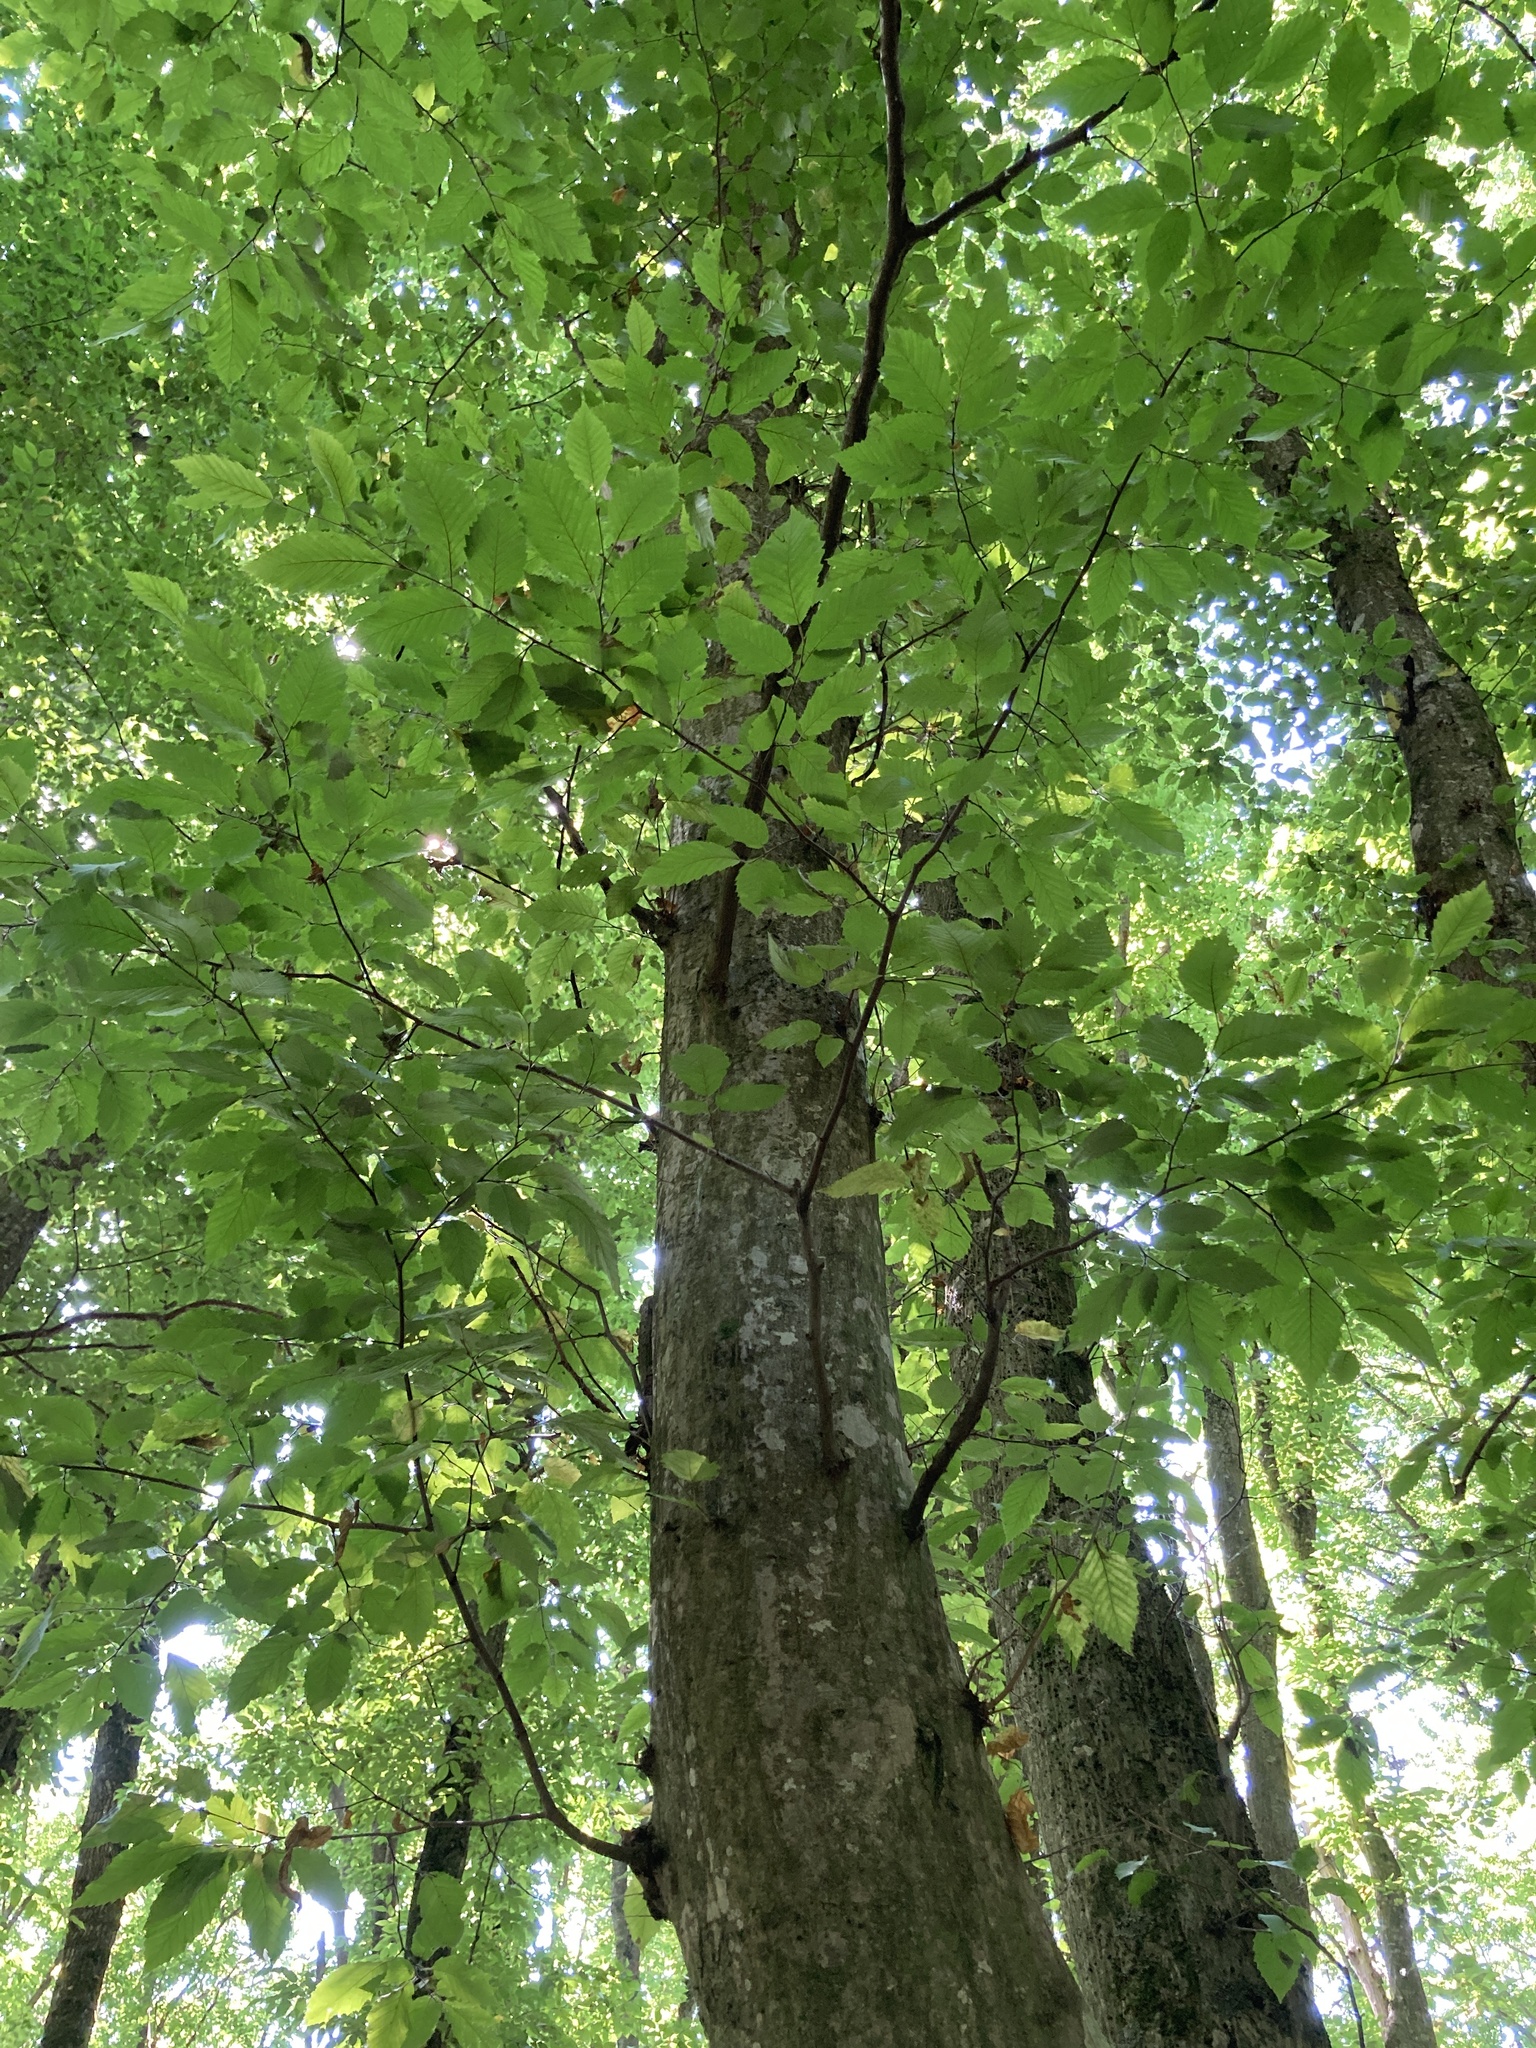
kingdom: Plantae
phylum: Tracheophyta
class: Magnoliopsida
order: Fagales
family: Betulaceae
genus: Carpinus
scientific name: Carpinus betulus
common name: Hornbeam
